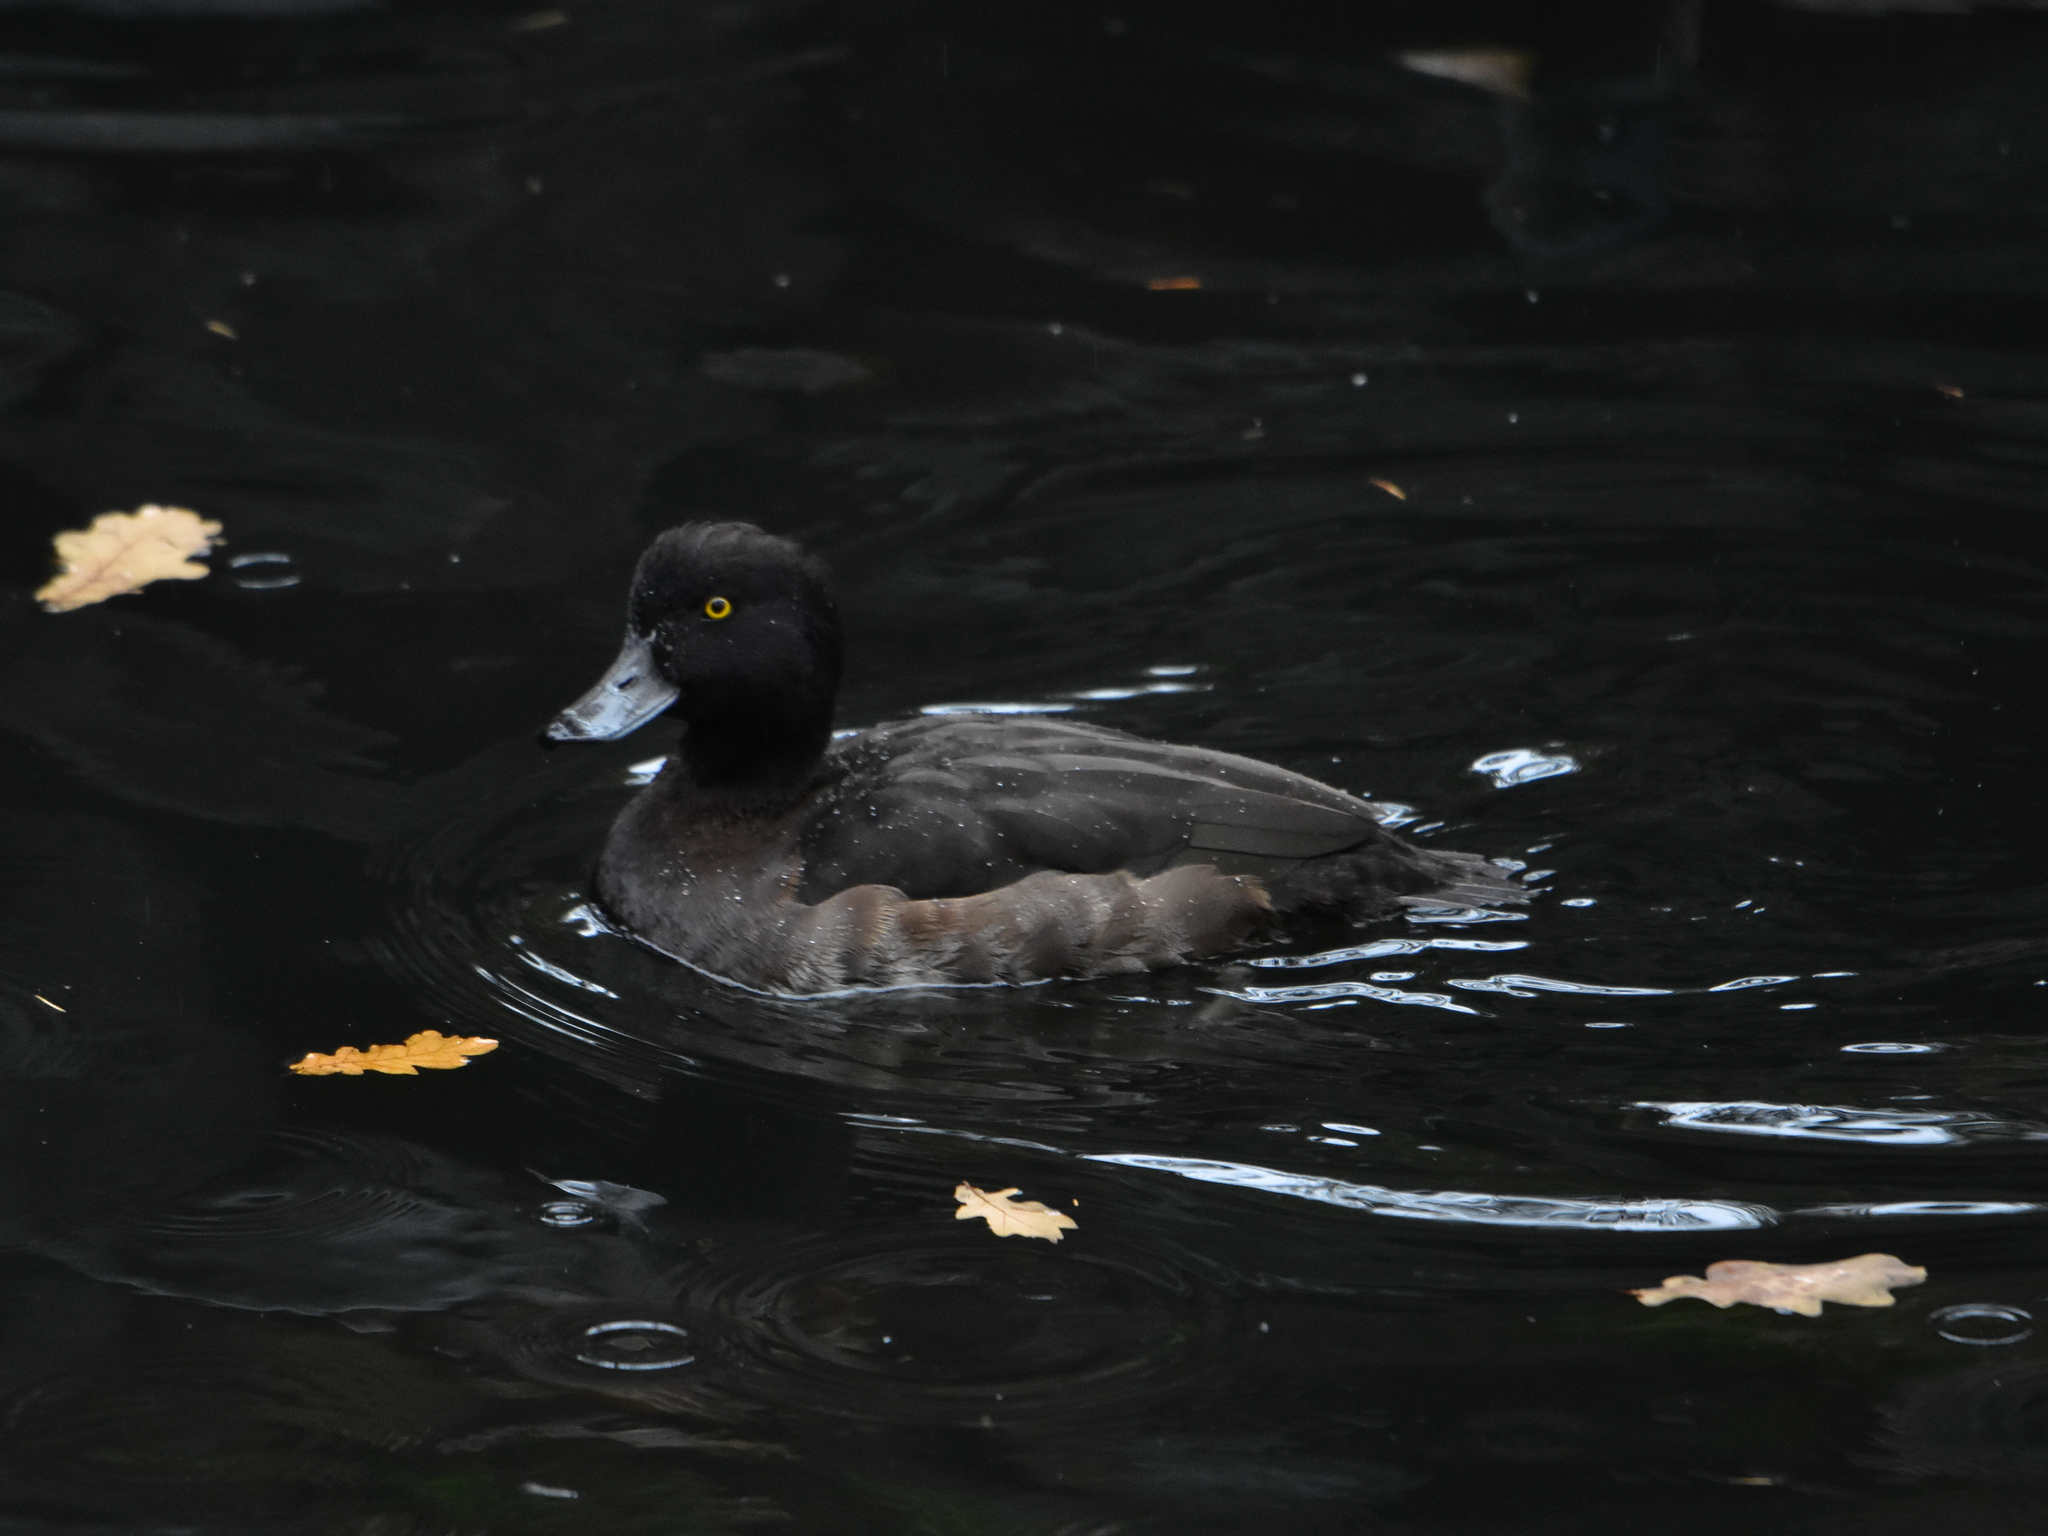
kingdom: Animalia
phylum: Chordata
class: Aves
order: Anseriformes
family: Anatidae
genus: Aythya
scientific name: Aythya fuligula
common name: Tufted duck
